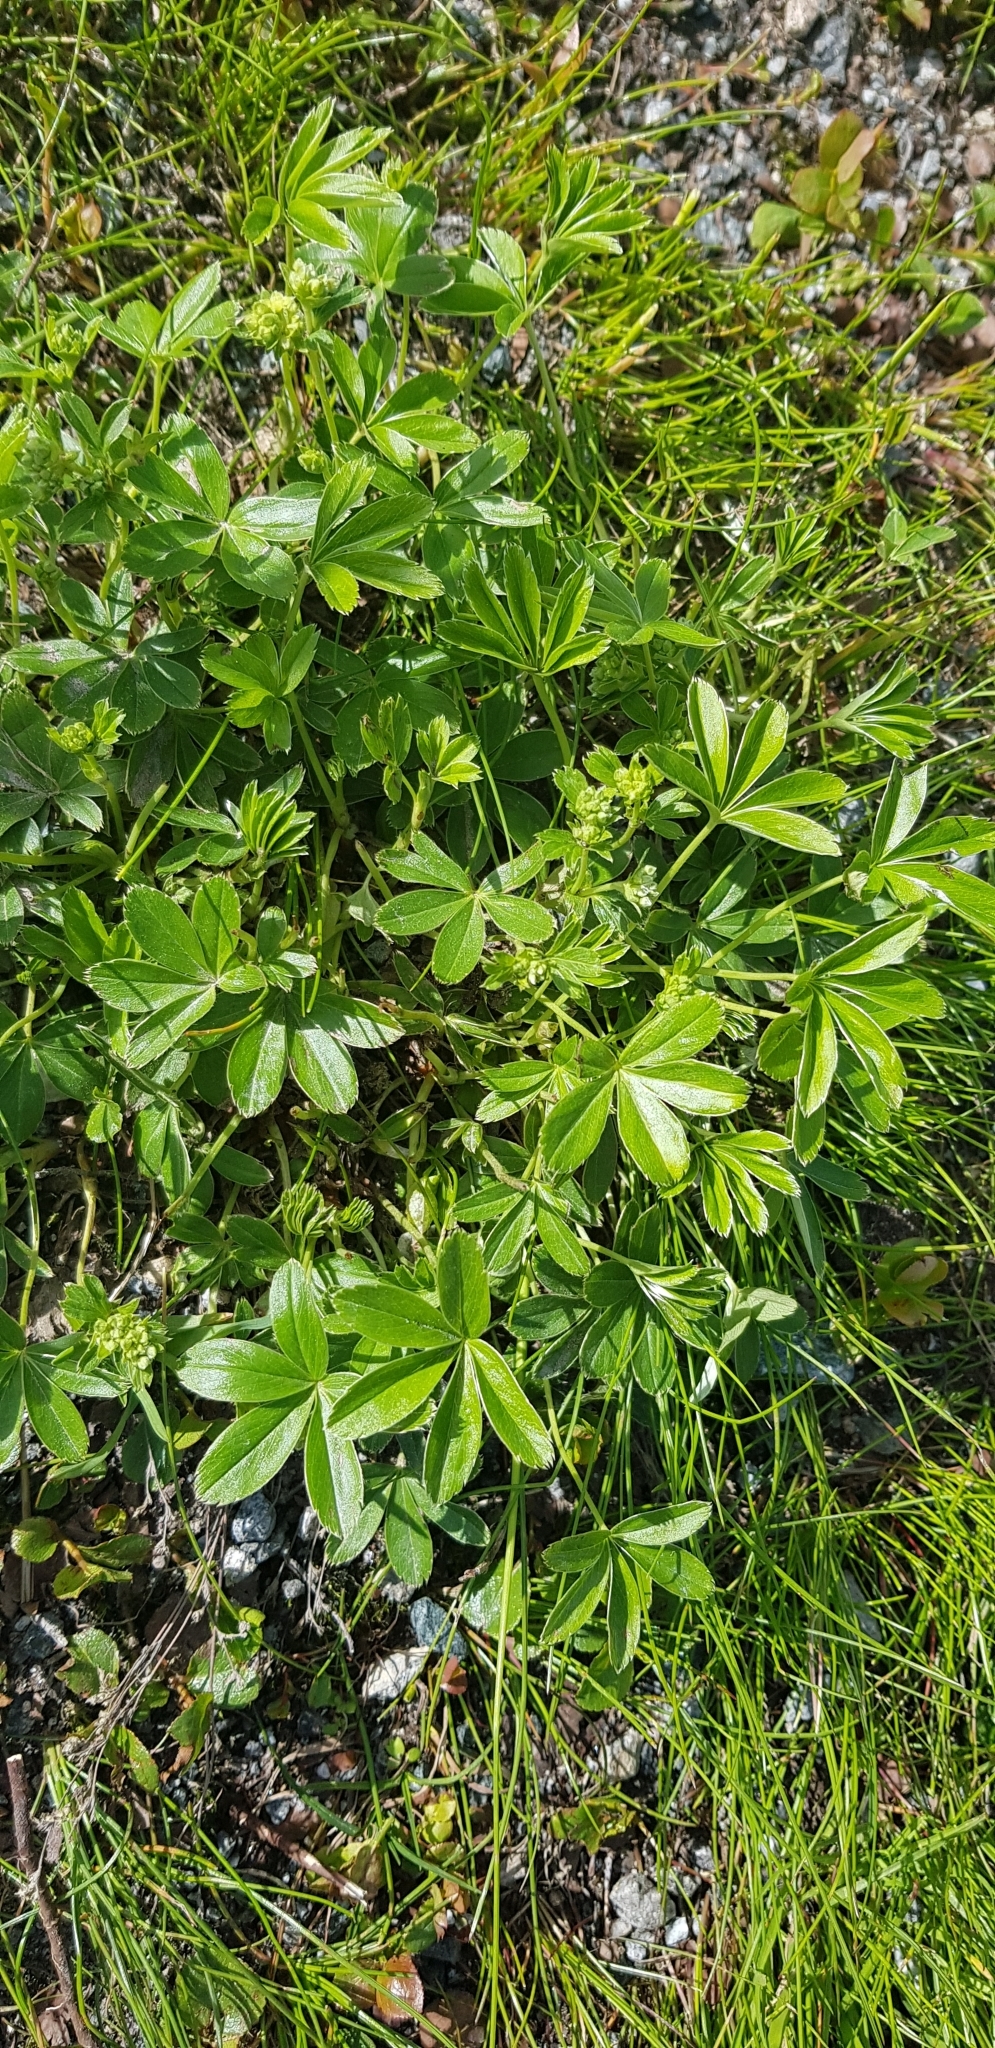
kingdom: Plantae
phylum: Tracheophyta
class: Magnoliopsida
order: Rosales
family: Rosaceae
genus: Alchemilla
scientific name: Alchemilla alpina
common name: Alpine lady's-mantle
